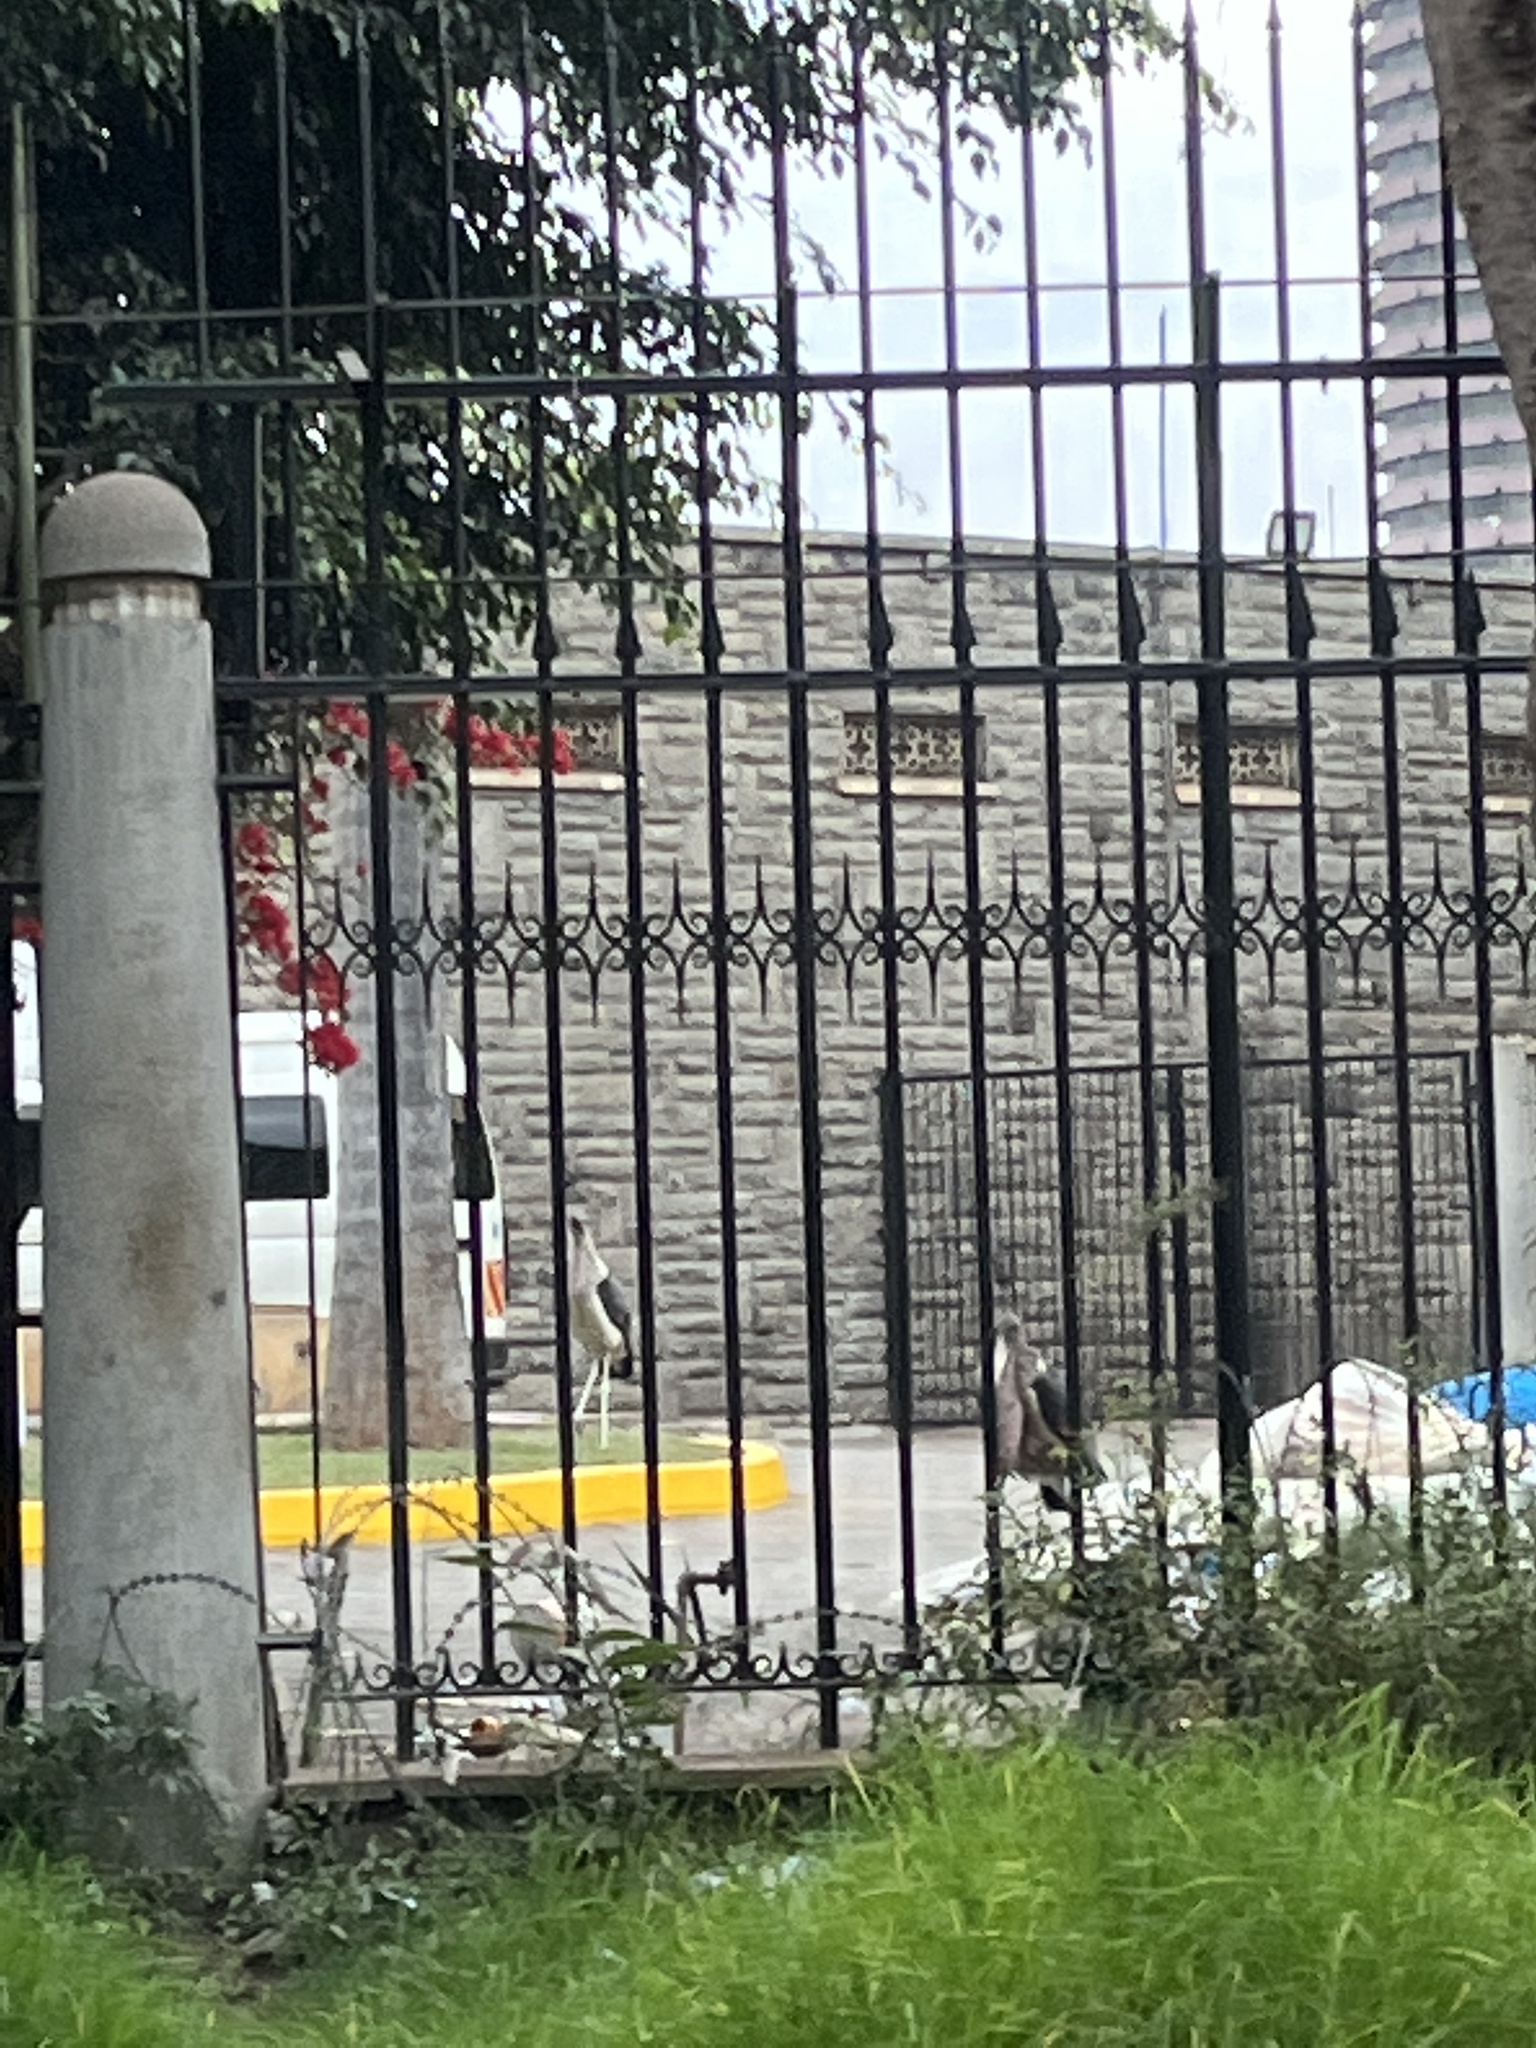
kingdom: Animalia
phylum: Chordata
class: Aves
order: Ciconiiformes
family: Ciconiidae
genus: Leptoptilos
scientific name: Leptoptilos crumenifer
